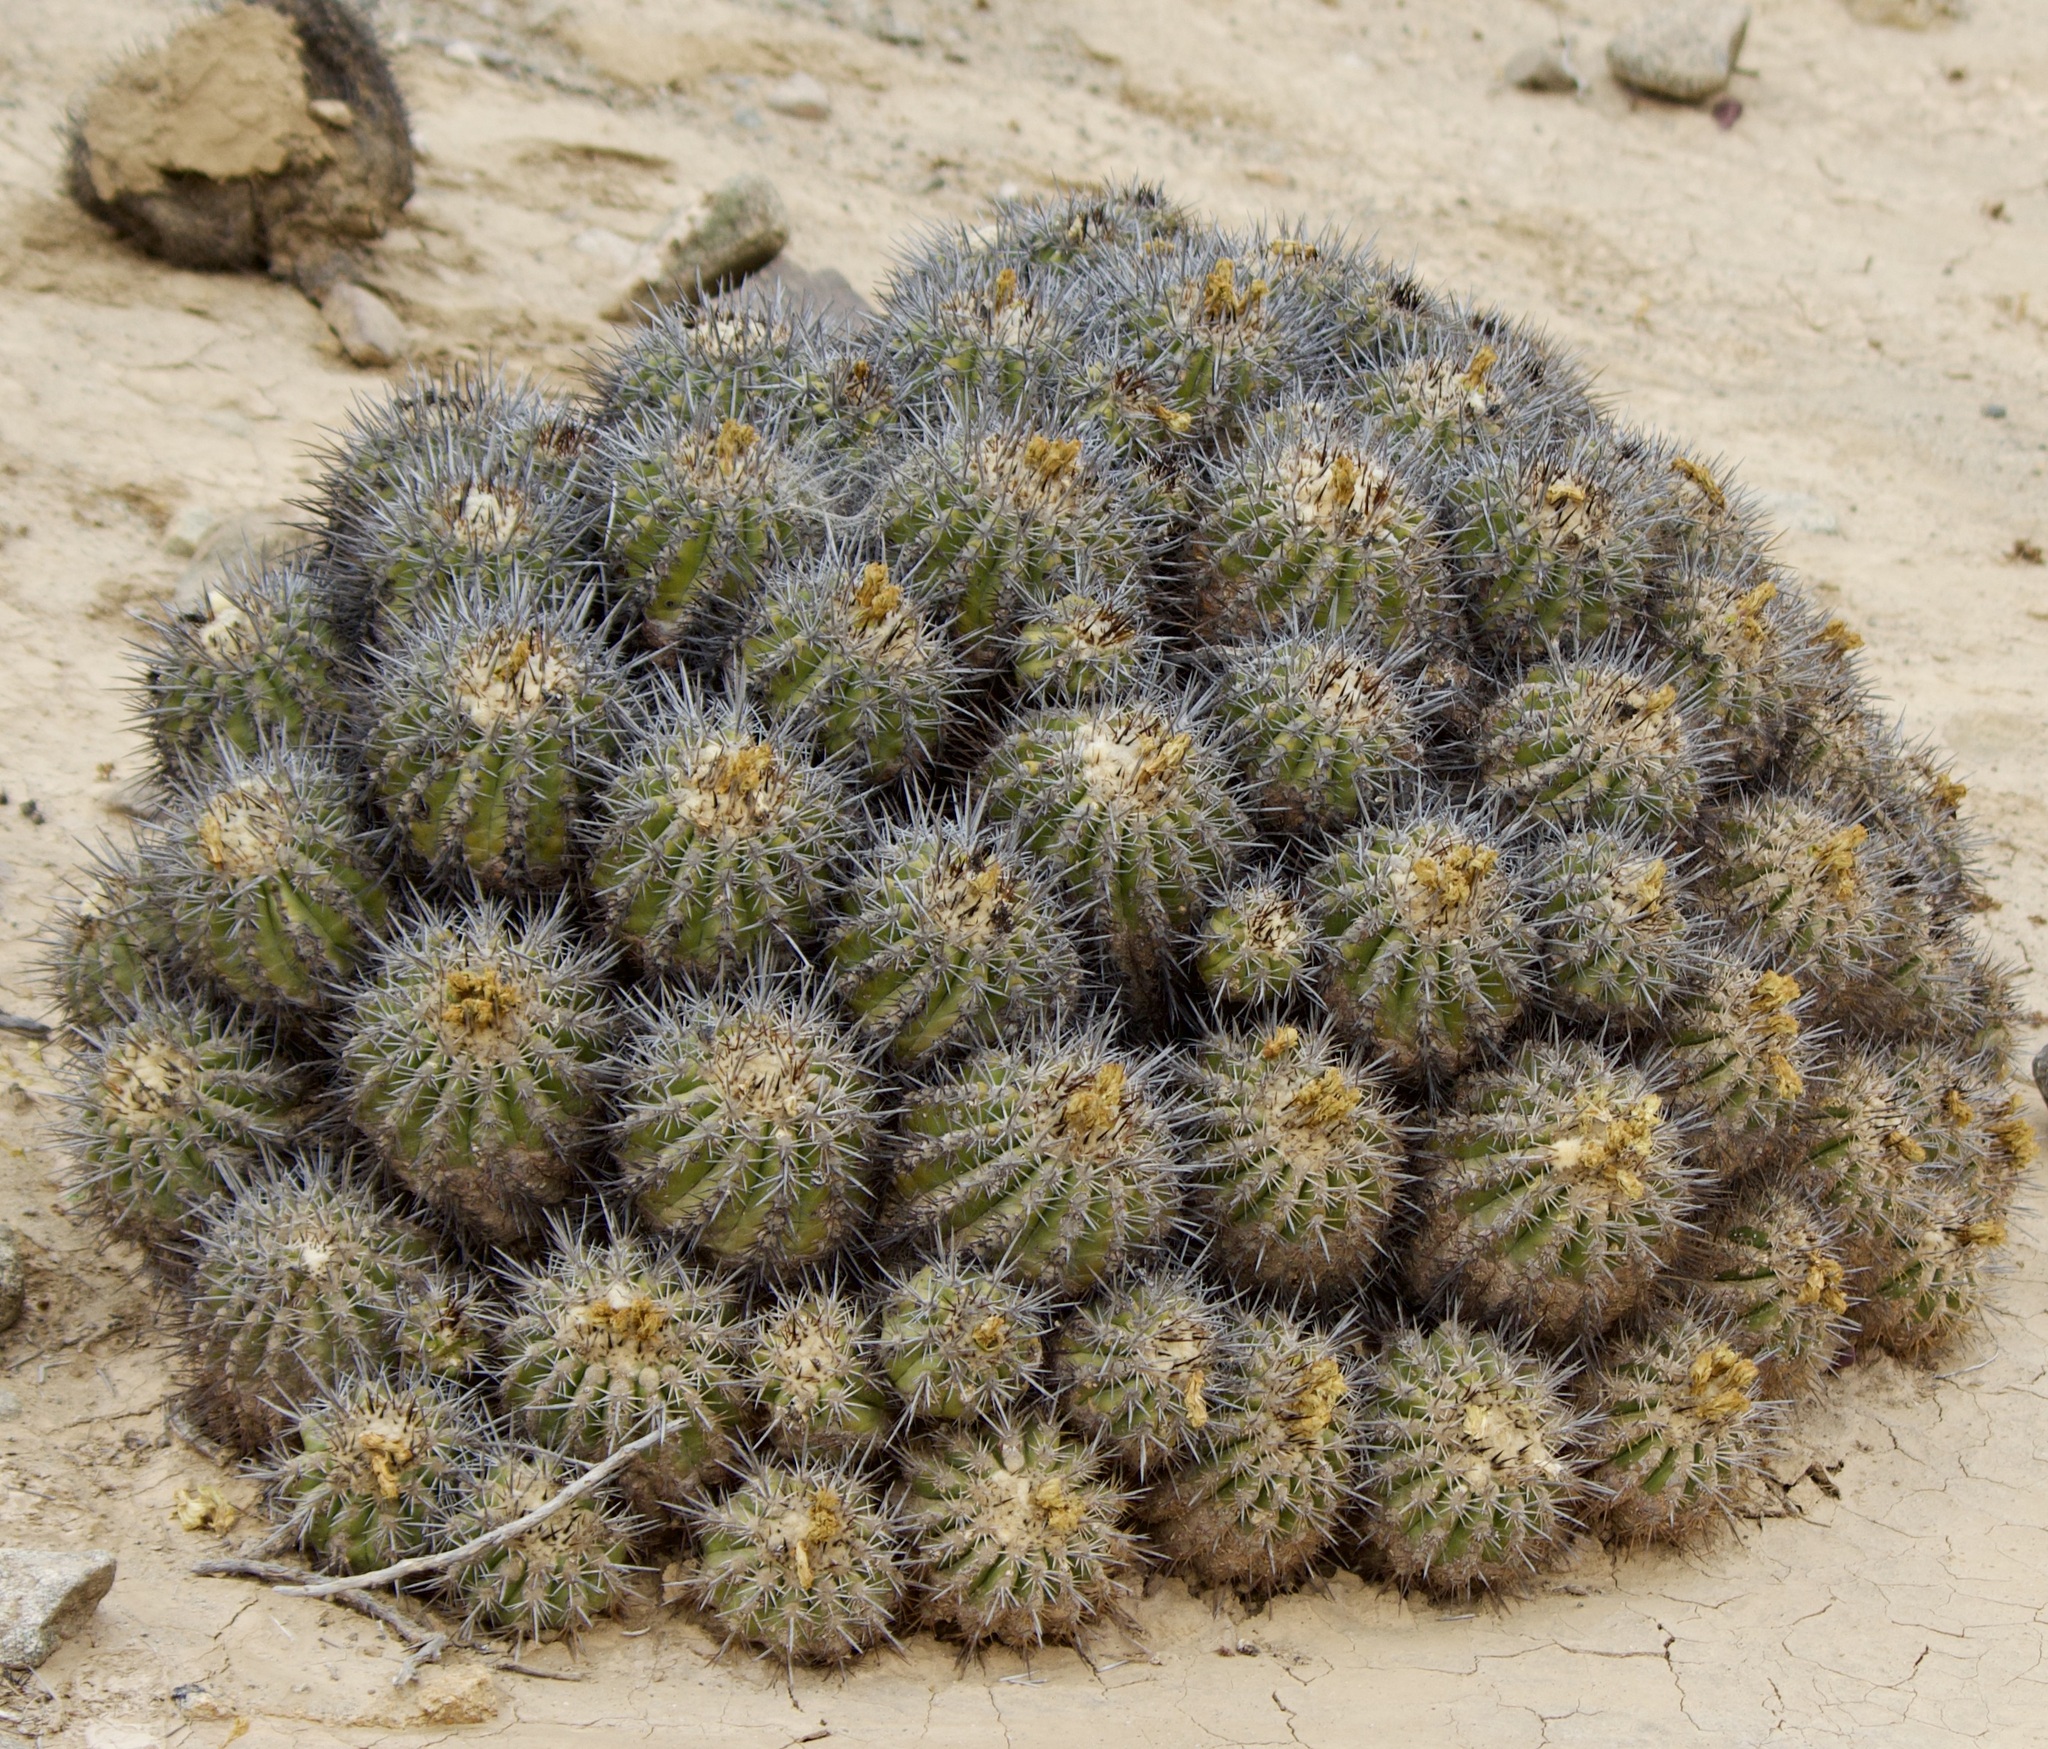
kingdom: Plantae
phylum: Tracheophyta
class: Magnoliopsida
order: Caryophyllales
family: Cactaceae
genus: Copiapoa
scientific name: Copiapoa coquimbana
